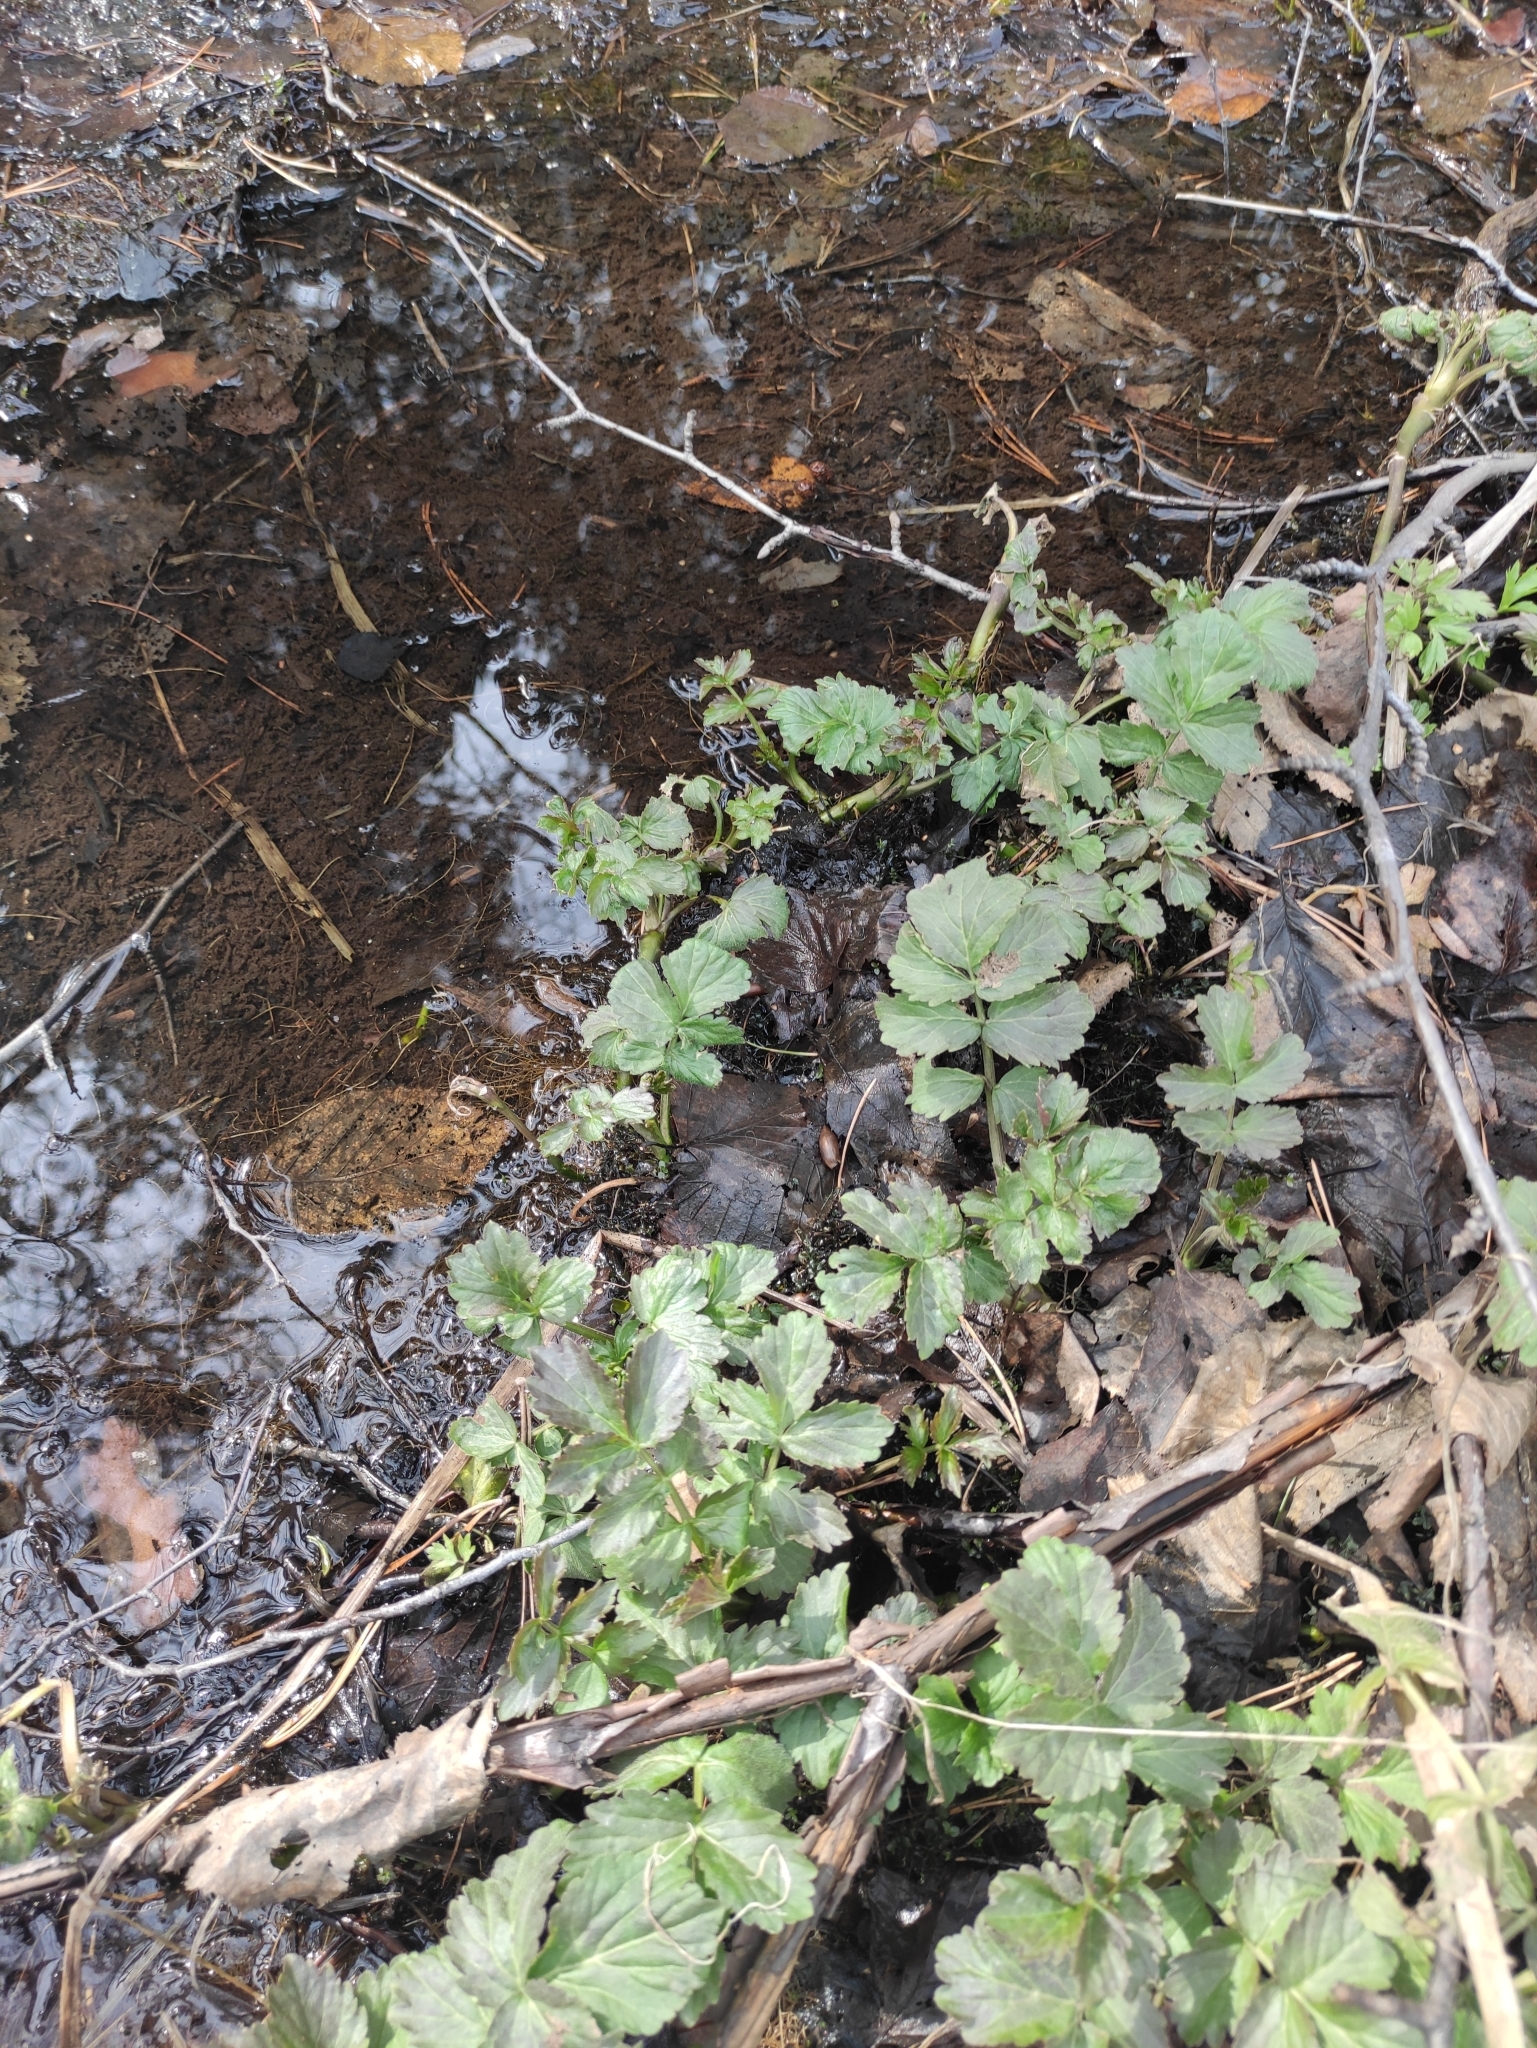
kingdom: Plantae
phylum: Tracheophyta
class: Magnoliopsida
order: Brassicales
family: Brassicaceae
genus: Cardamine
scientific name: Cardamine macrophylla
